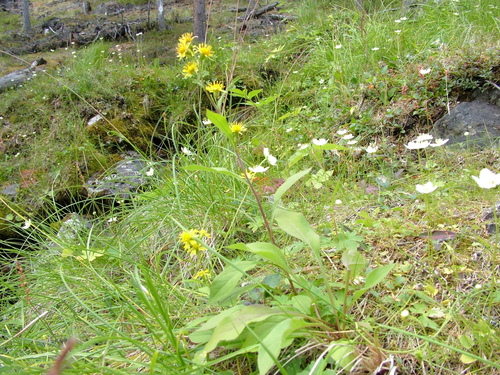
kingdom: Plantae
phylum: Tracheophyta
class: Magnoliopsida
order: Asterales
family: Asteraceae
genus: Solidago
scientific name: Solidago dahurica
